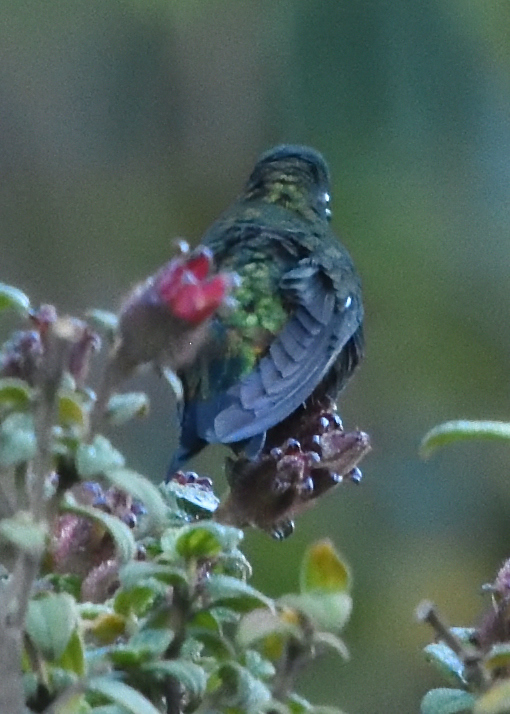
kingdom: Animalia
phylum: Chordata
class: Aves
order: Apodiformes
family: Trochilidae
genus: Eriocnemis
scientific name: Eriocnemis derbyi
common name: Black-thighed puffleg
